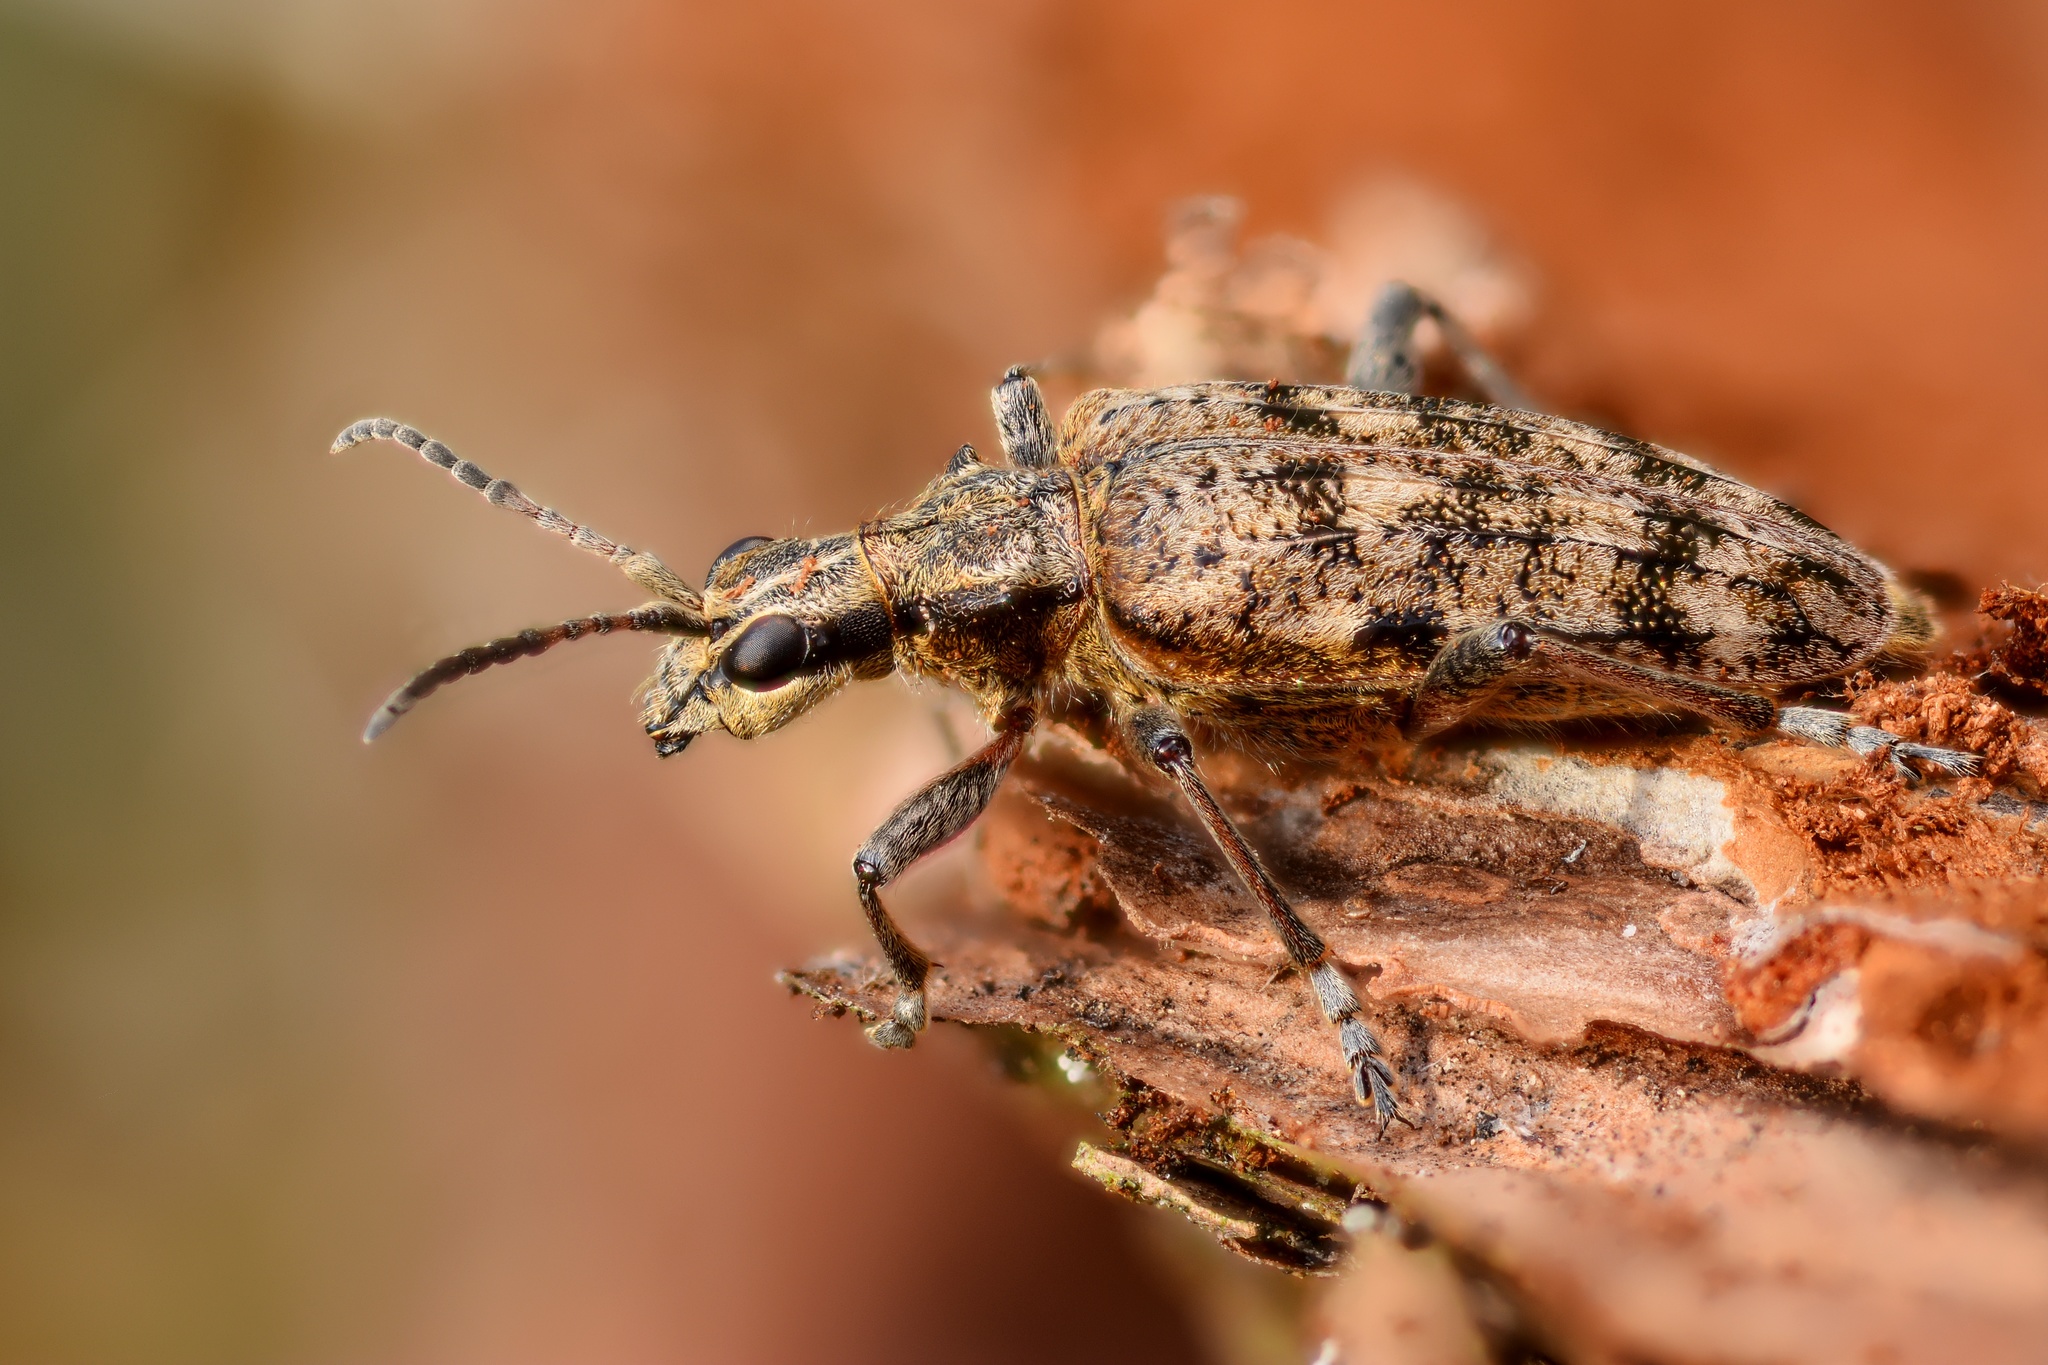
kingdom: Animalia
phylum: Arthropoda
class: Insecta
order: Coleoptera
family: Cerambycidae
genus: Rhagium
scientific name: Rhagium inquisitor
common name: Ribbed pine borer
